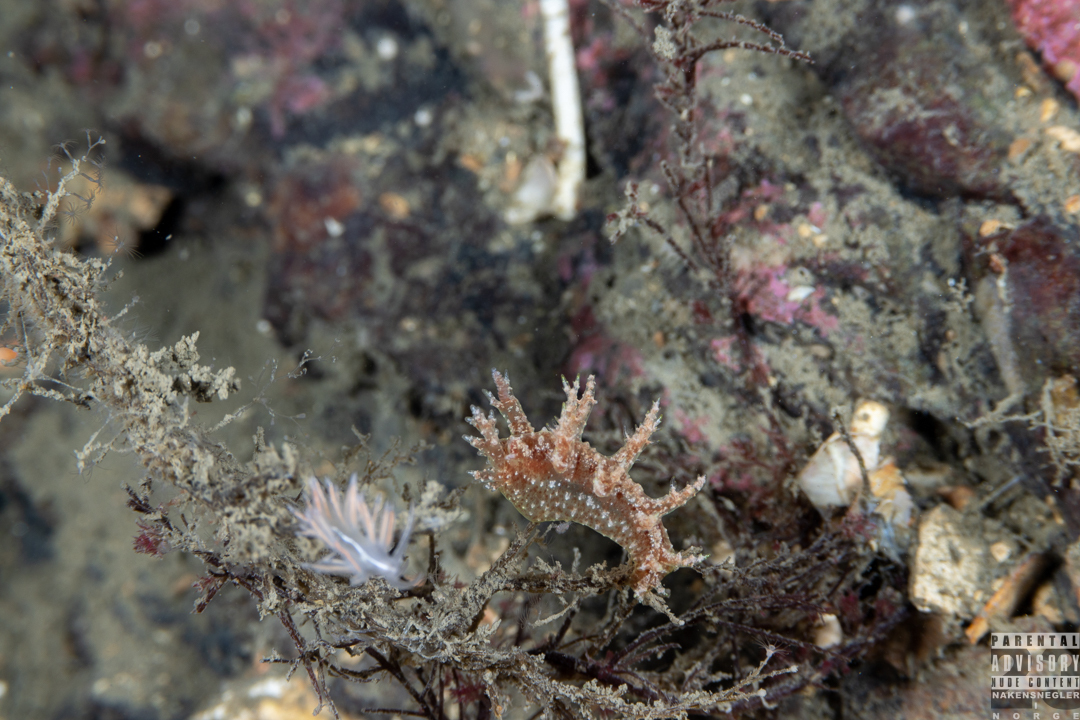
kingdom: Animalia
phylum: Mollusca
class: Gastropoda
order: Nudibranchia
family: Dendronotidae
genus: Dendronotus
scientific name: Dendronotus frondosus
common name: Bushy-backed nudibranch
